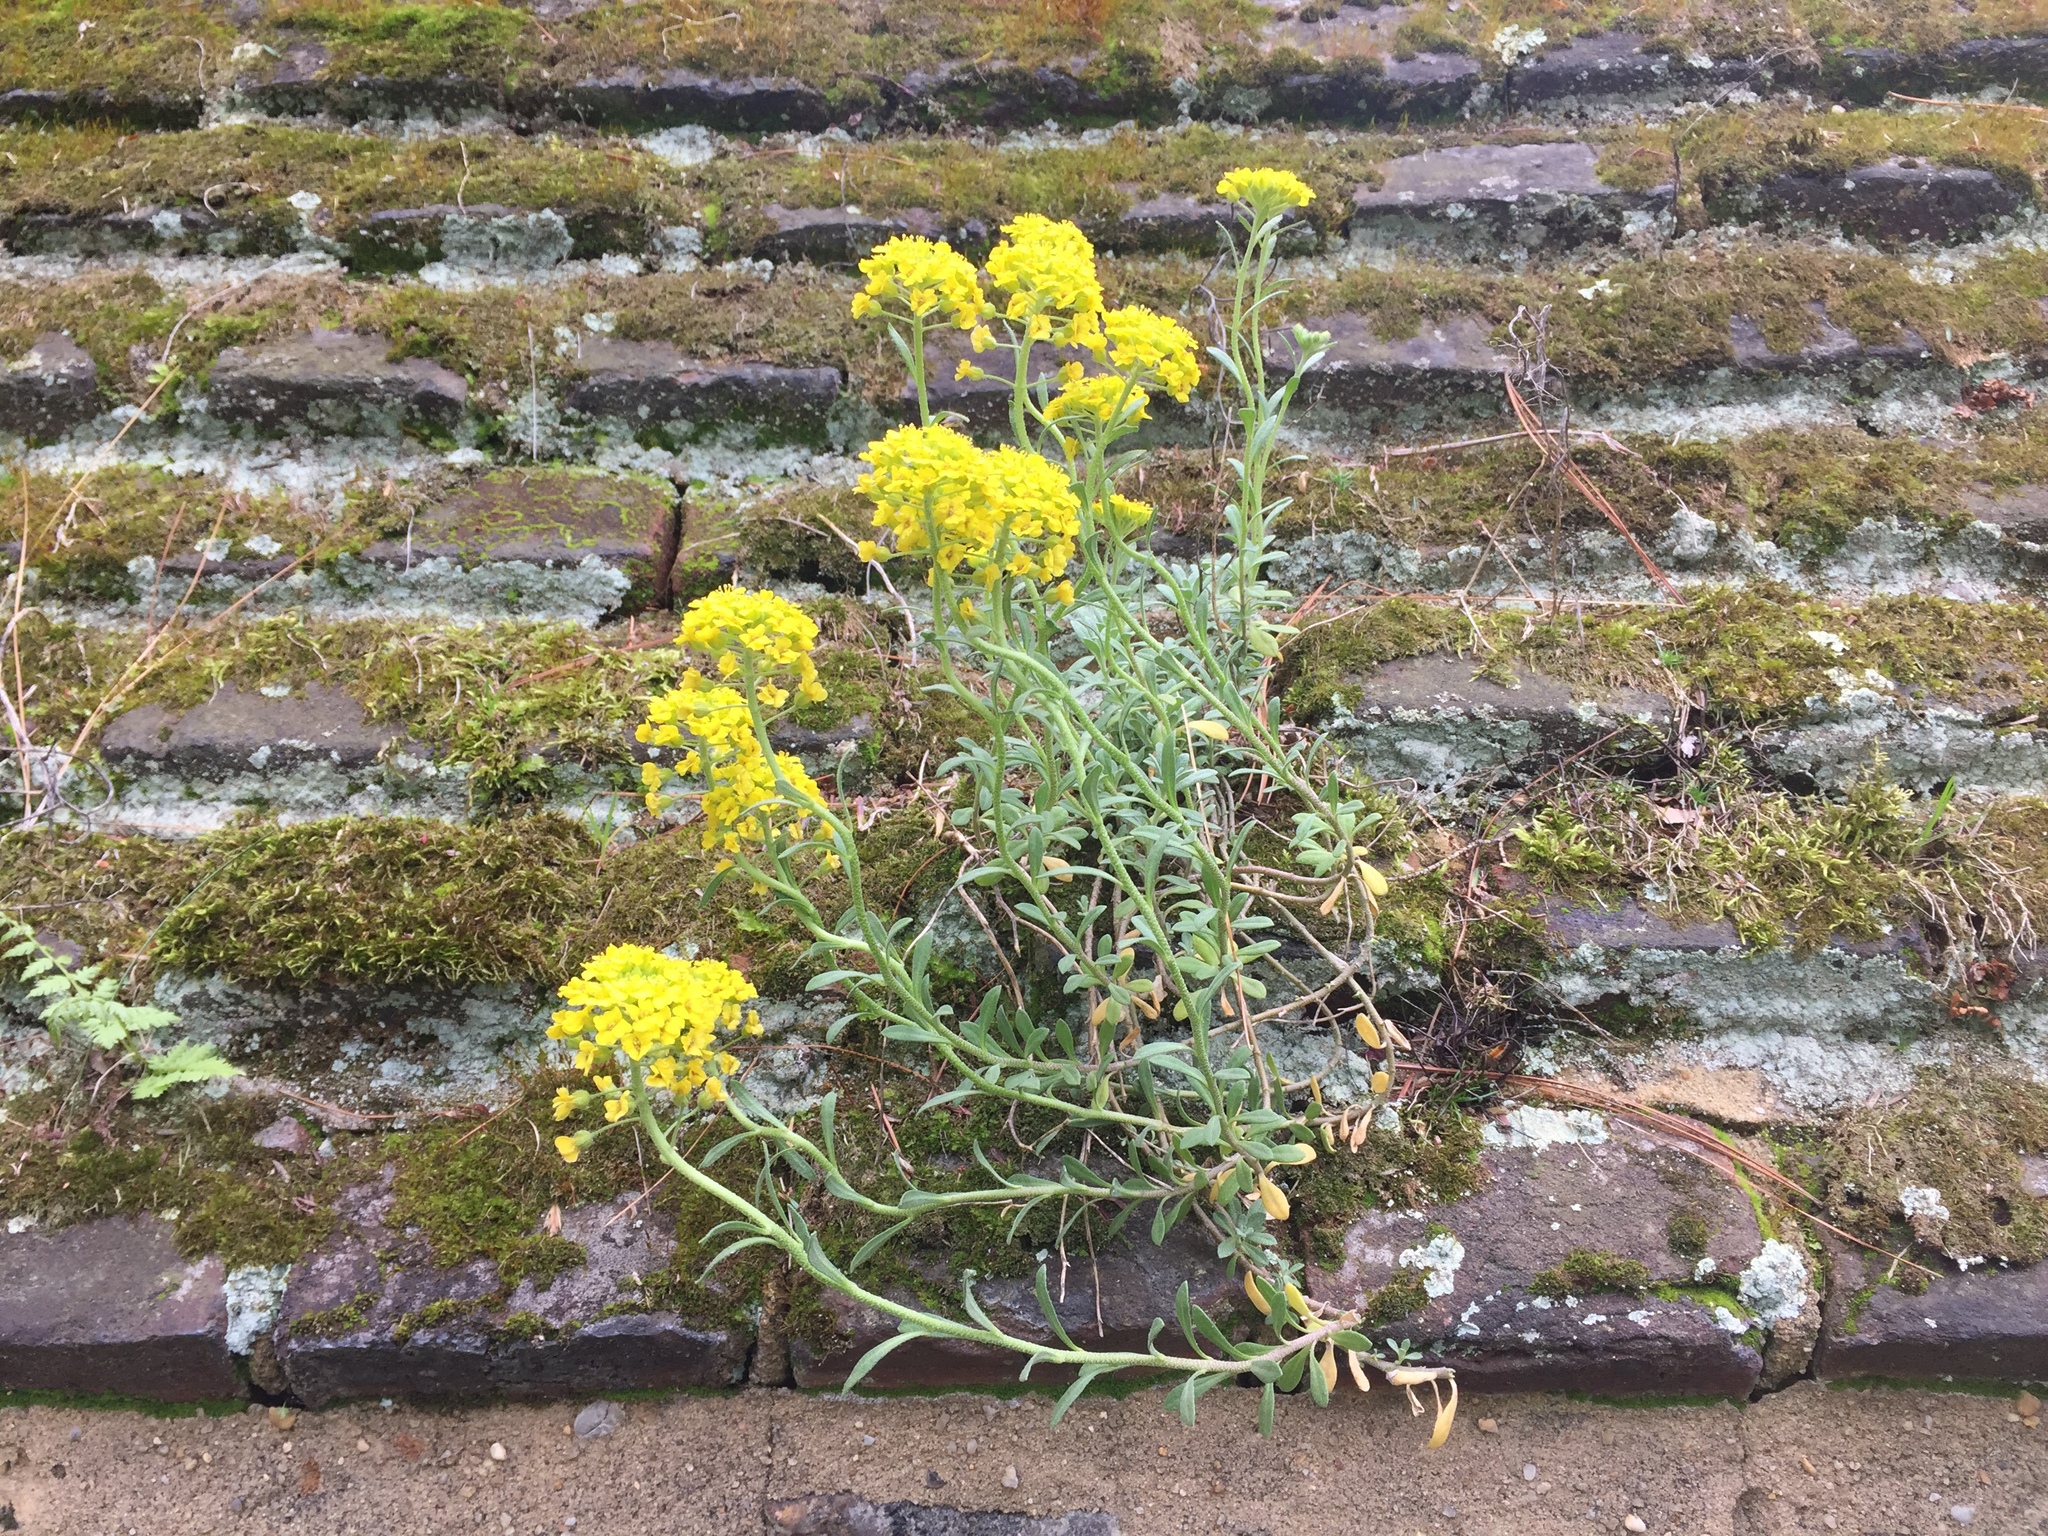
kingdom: Plantae
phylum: Tracheophyta
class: Magnoliopsida
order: Brassicales
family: Brassicaceae
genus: Aurinia
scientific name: Aurinia saxatilis
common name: Golden-tuft alyssum
